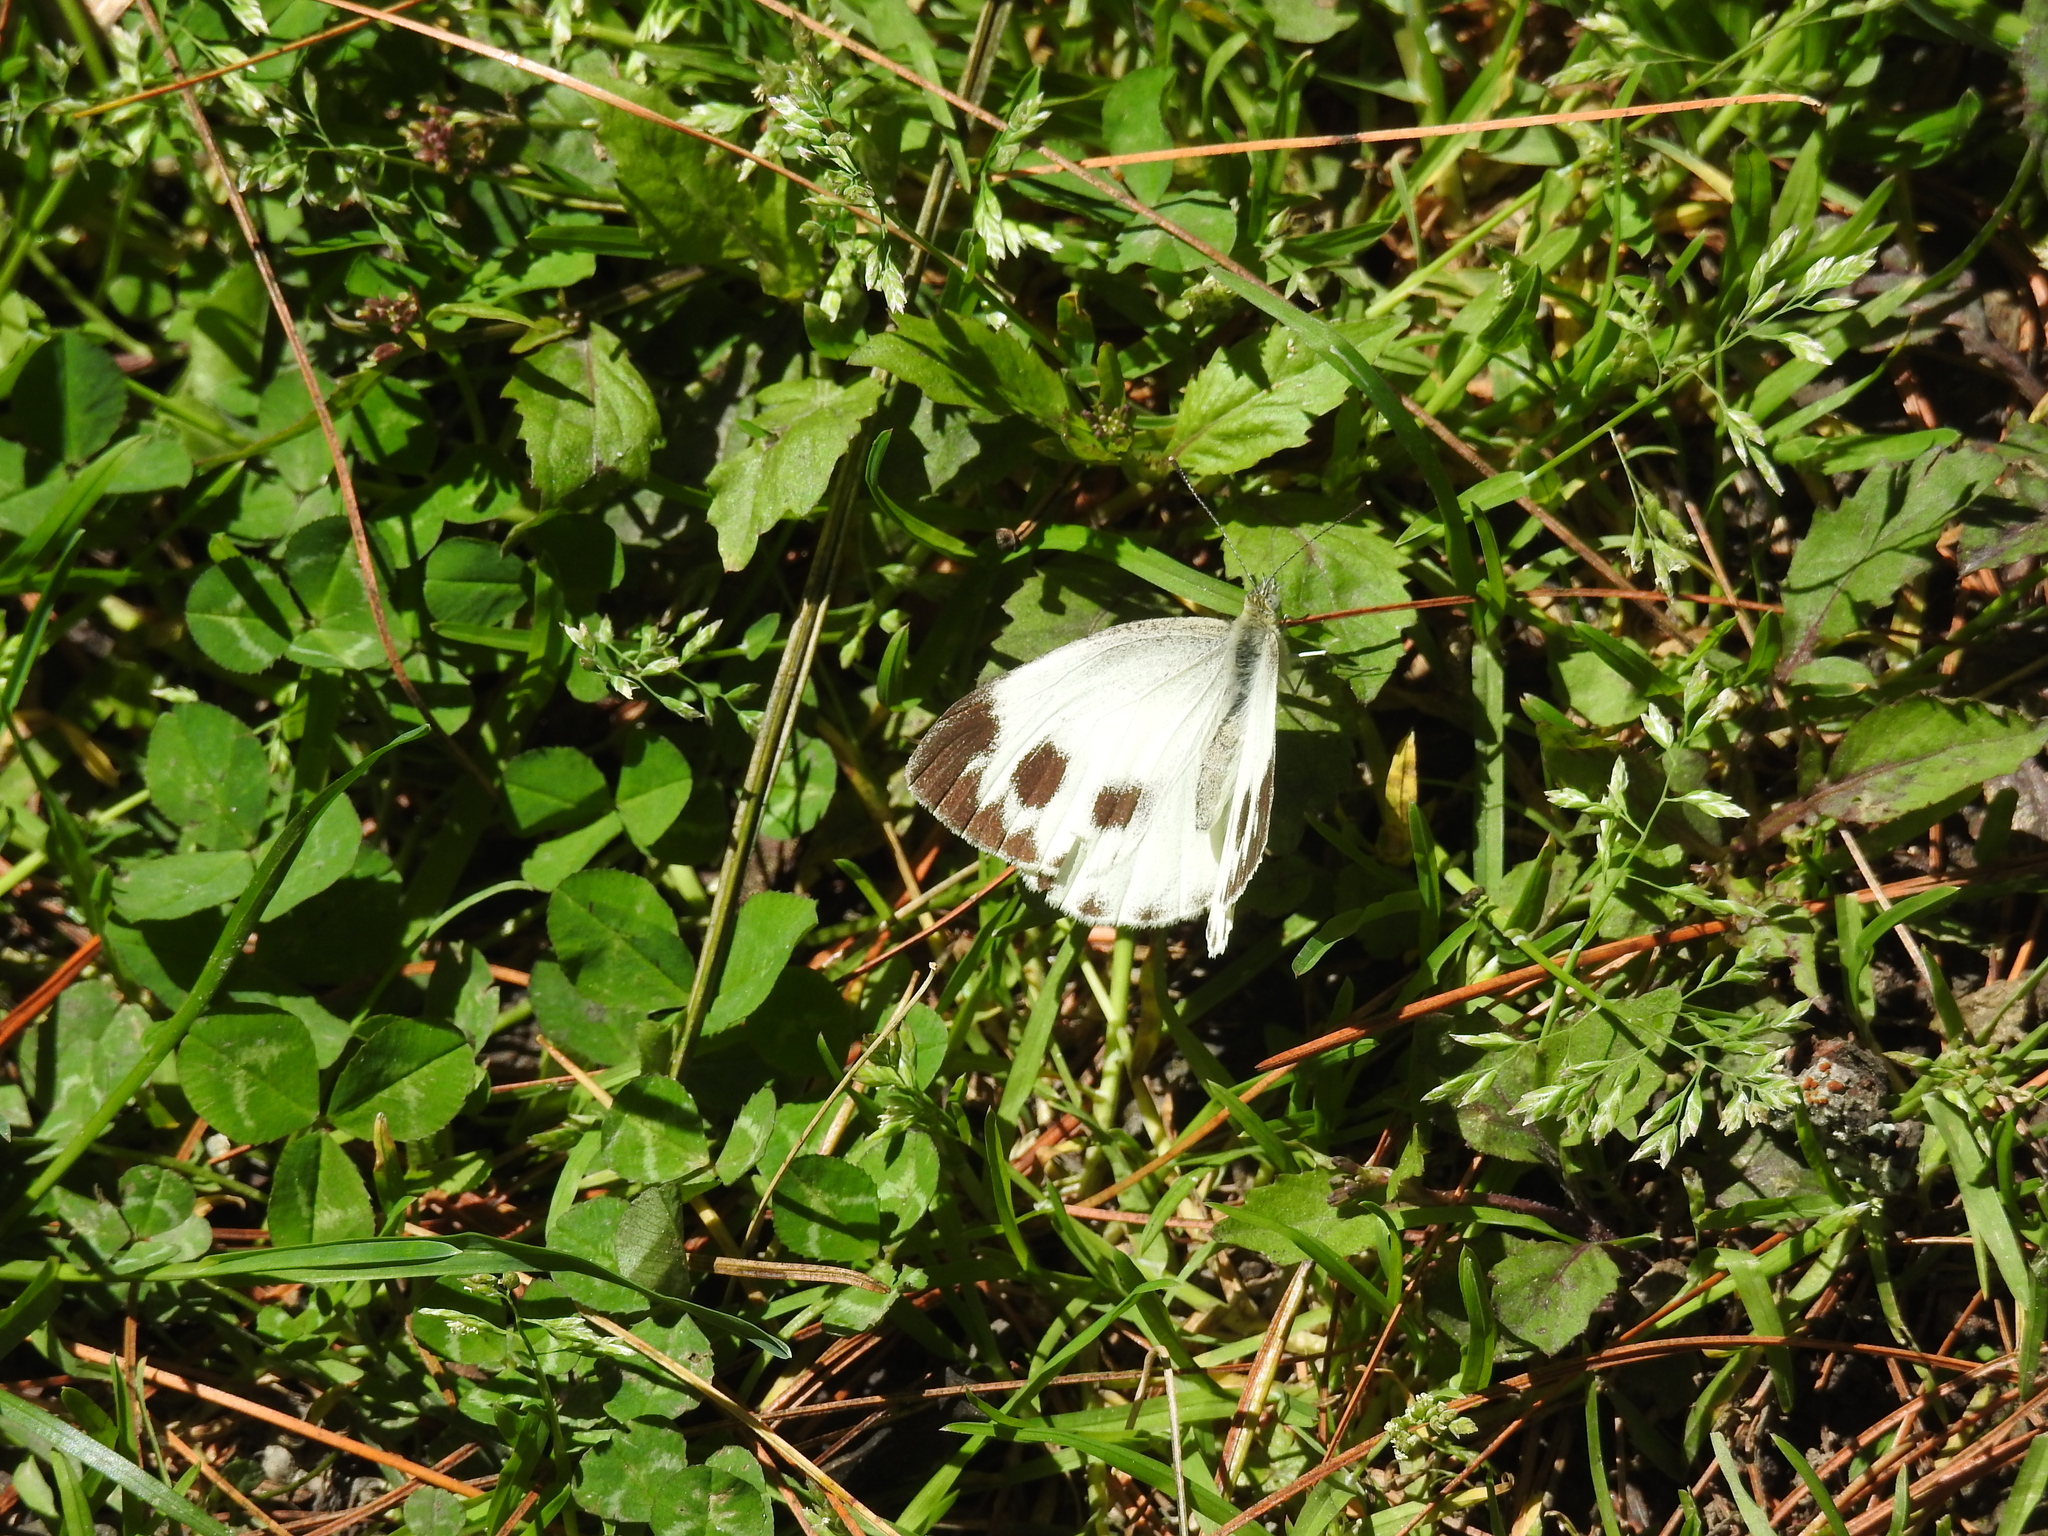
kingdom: Animalia
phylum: Arthropoda
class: Insecta
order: Lepidoptera
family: Pieridae
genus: Pieris
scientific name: Pieris canidia
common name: Indian cabbage white
